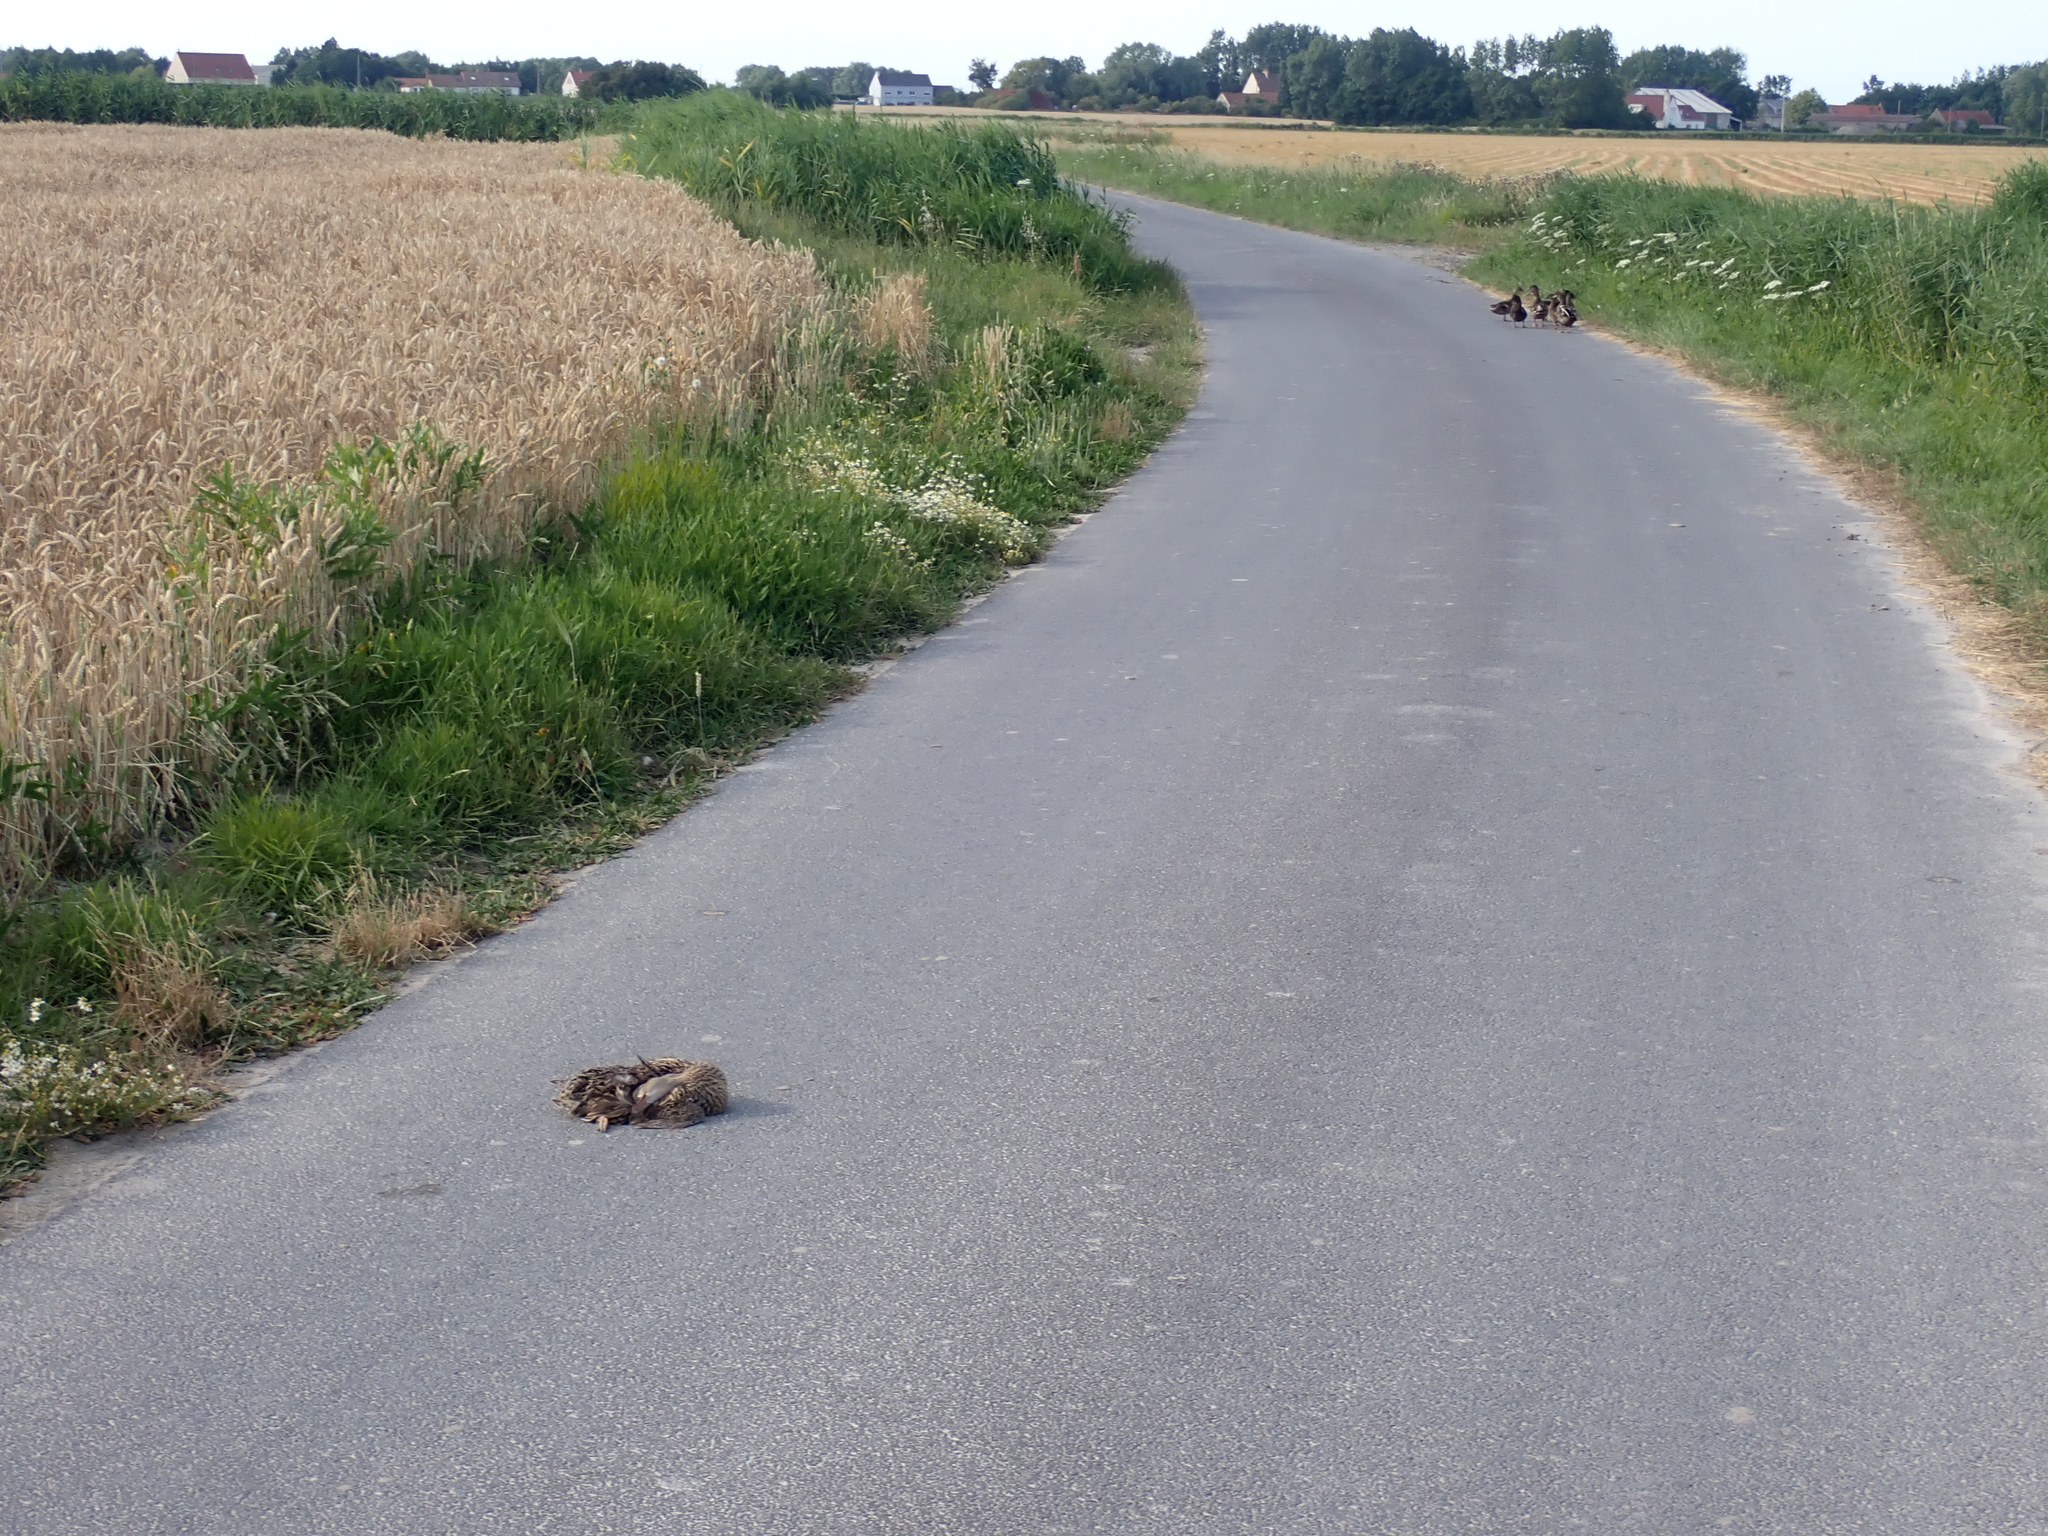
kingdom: Animalia
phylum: Chordata
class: Aves
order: Anseriformes
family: Anatidae
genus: Anas
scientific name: Anas platyrhynchos
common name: Mallard
